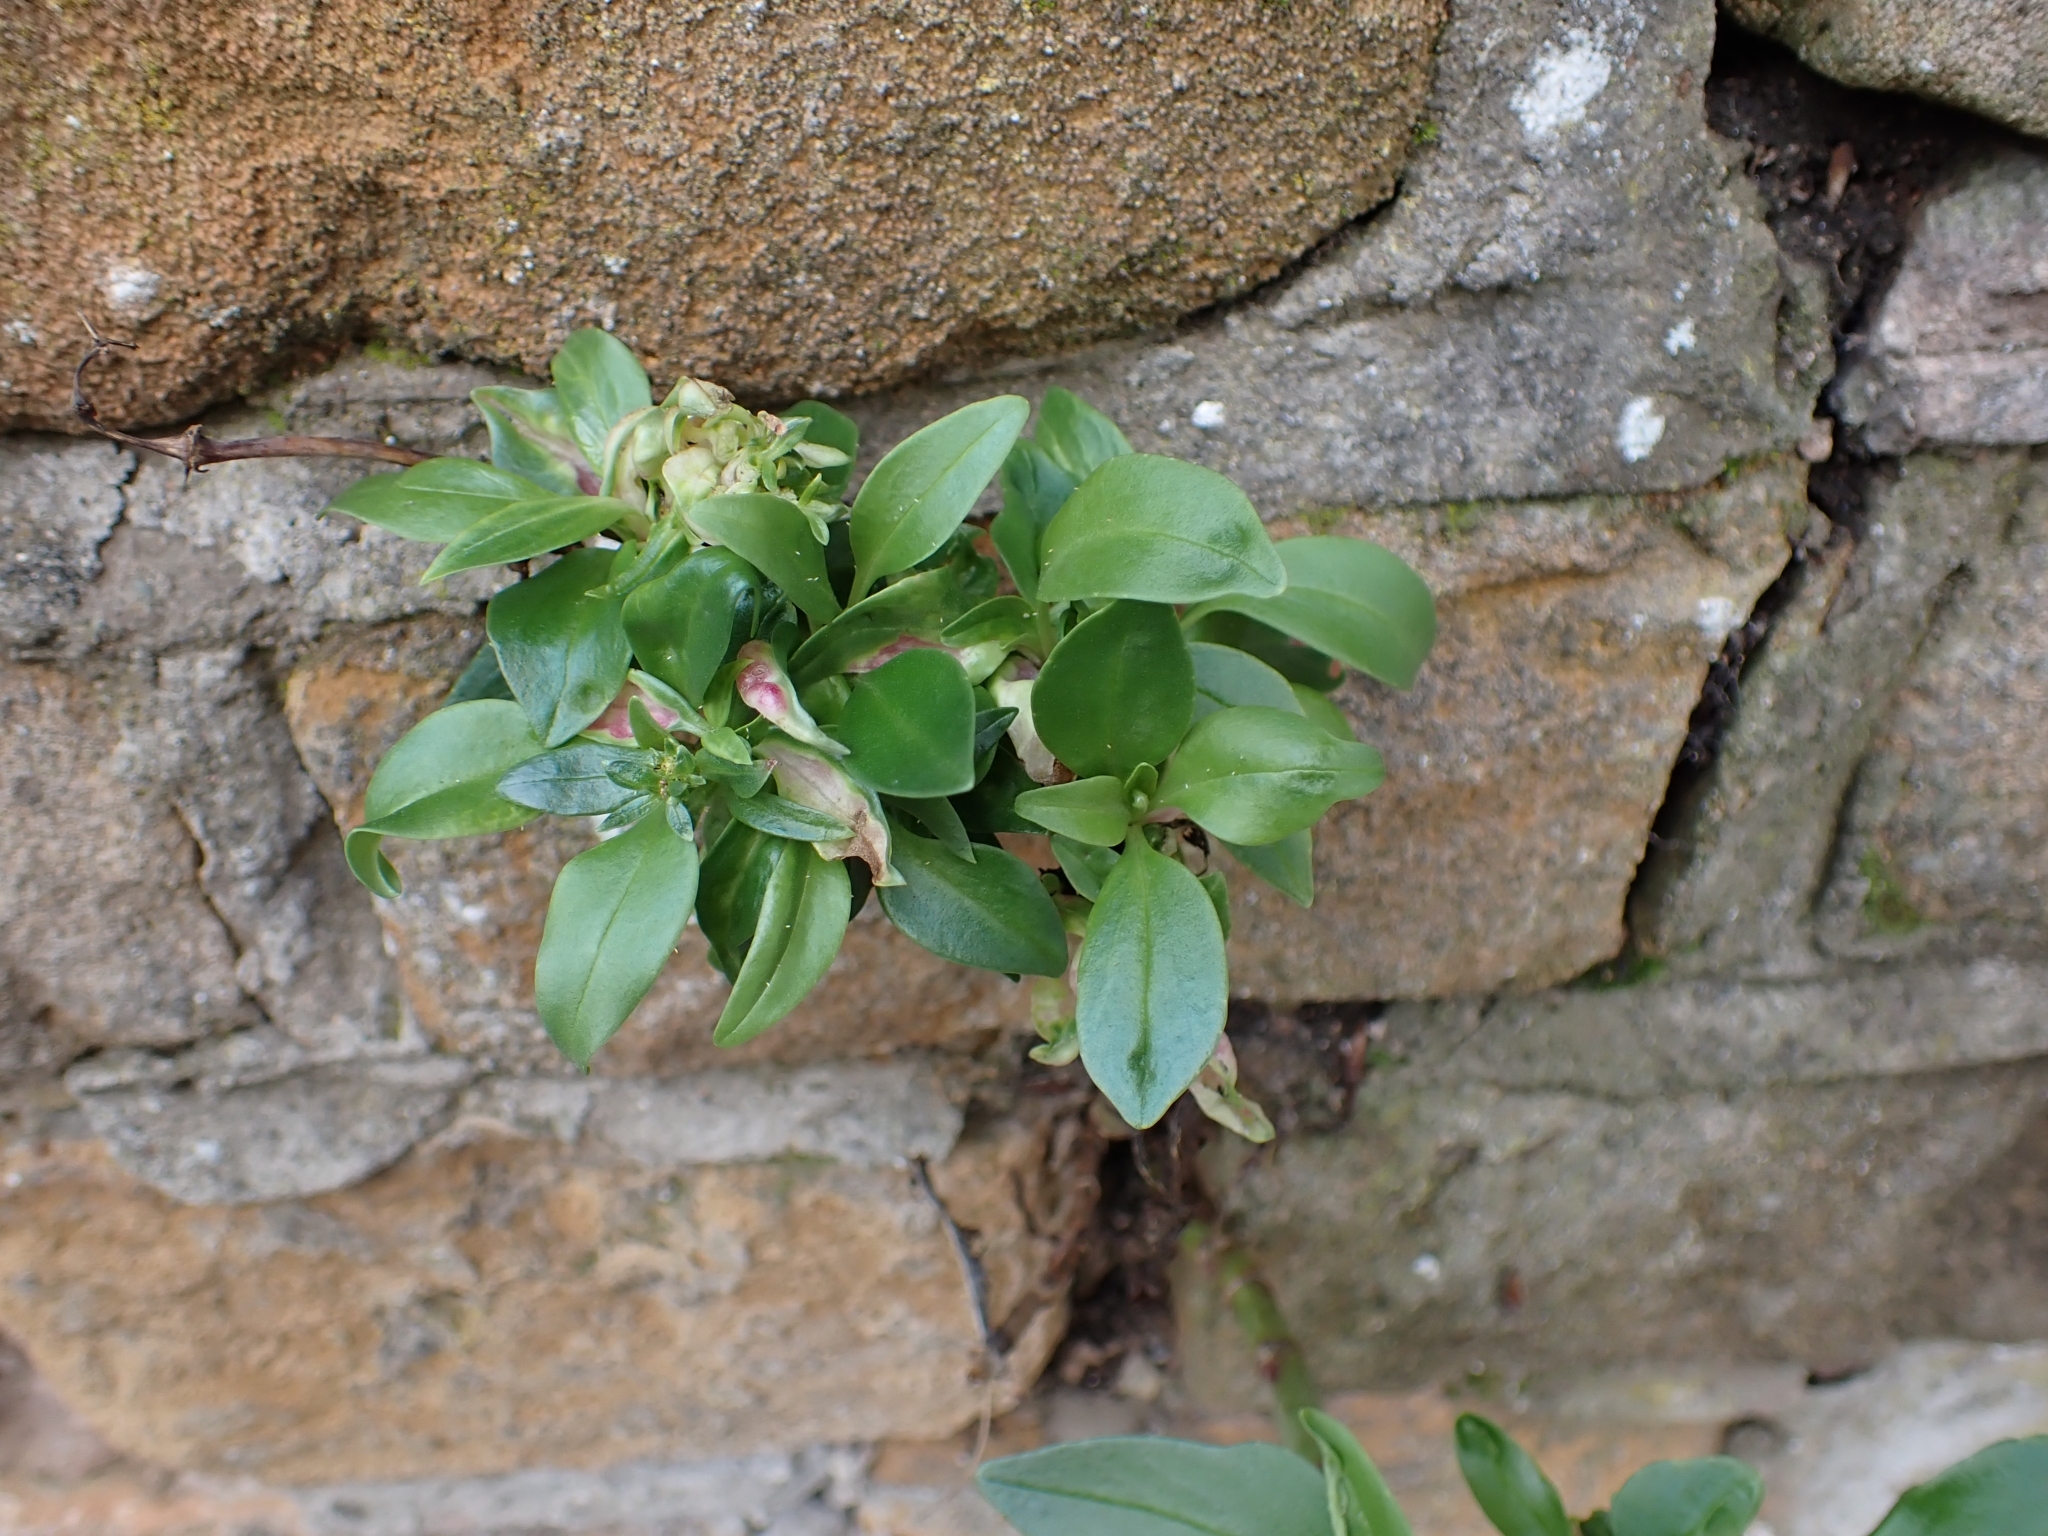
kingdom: Animalia
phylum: Arthropoda
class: Insecta
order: Hemiptera
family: Triozidae
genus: Trioza
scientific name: Trioza centranthi
